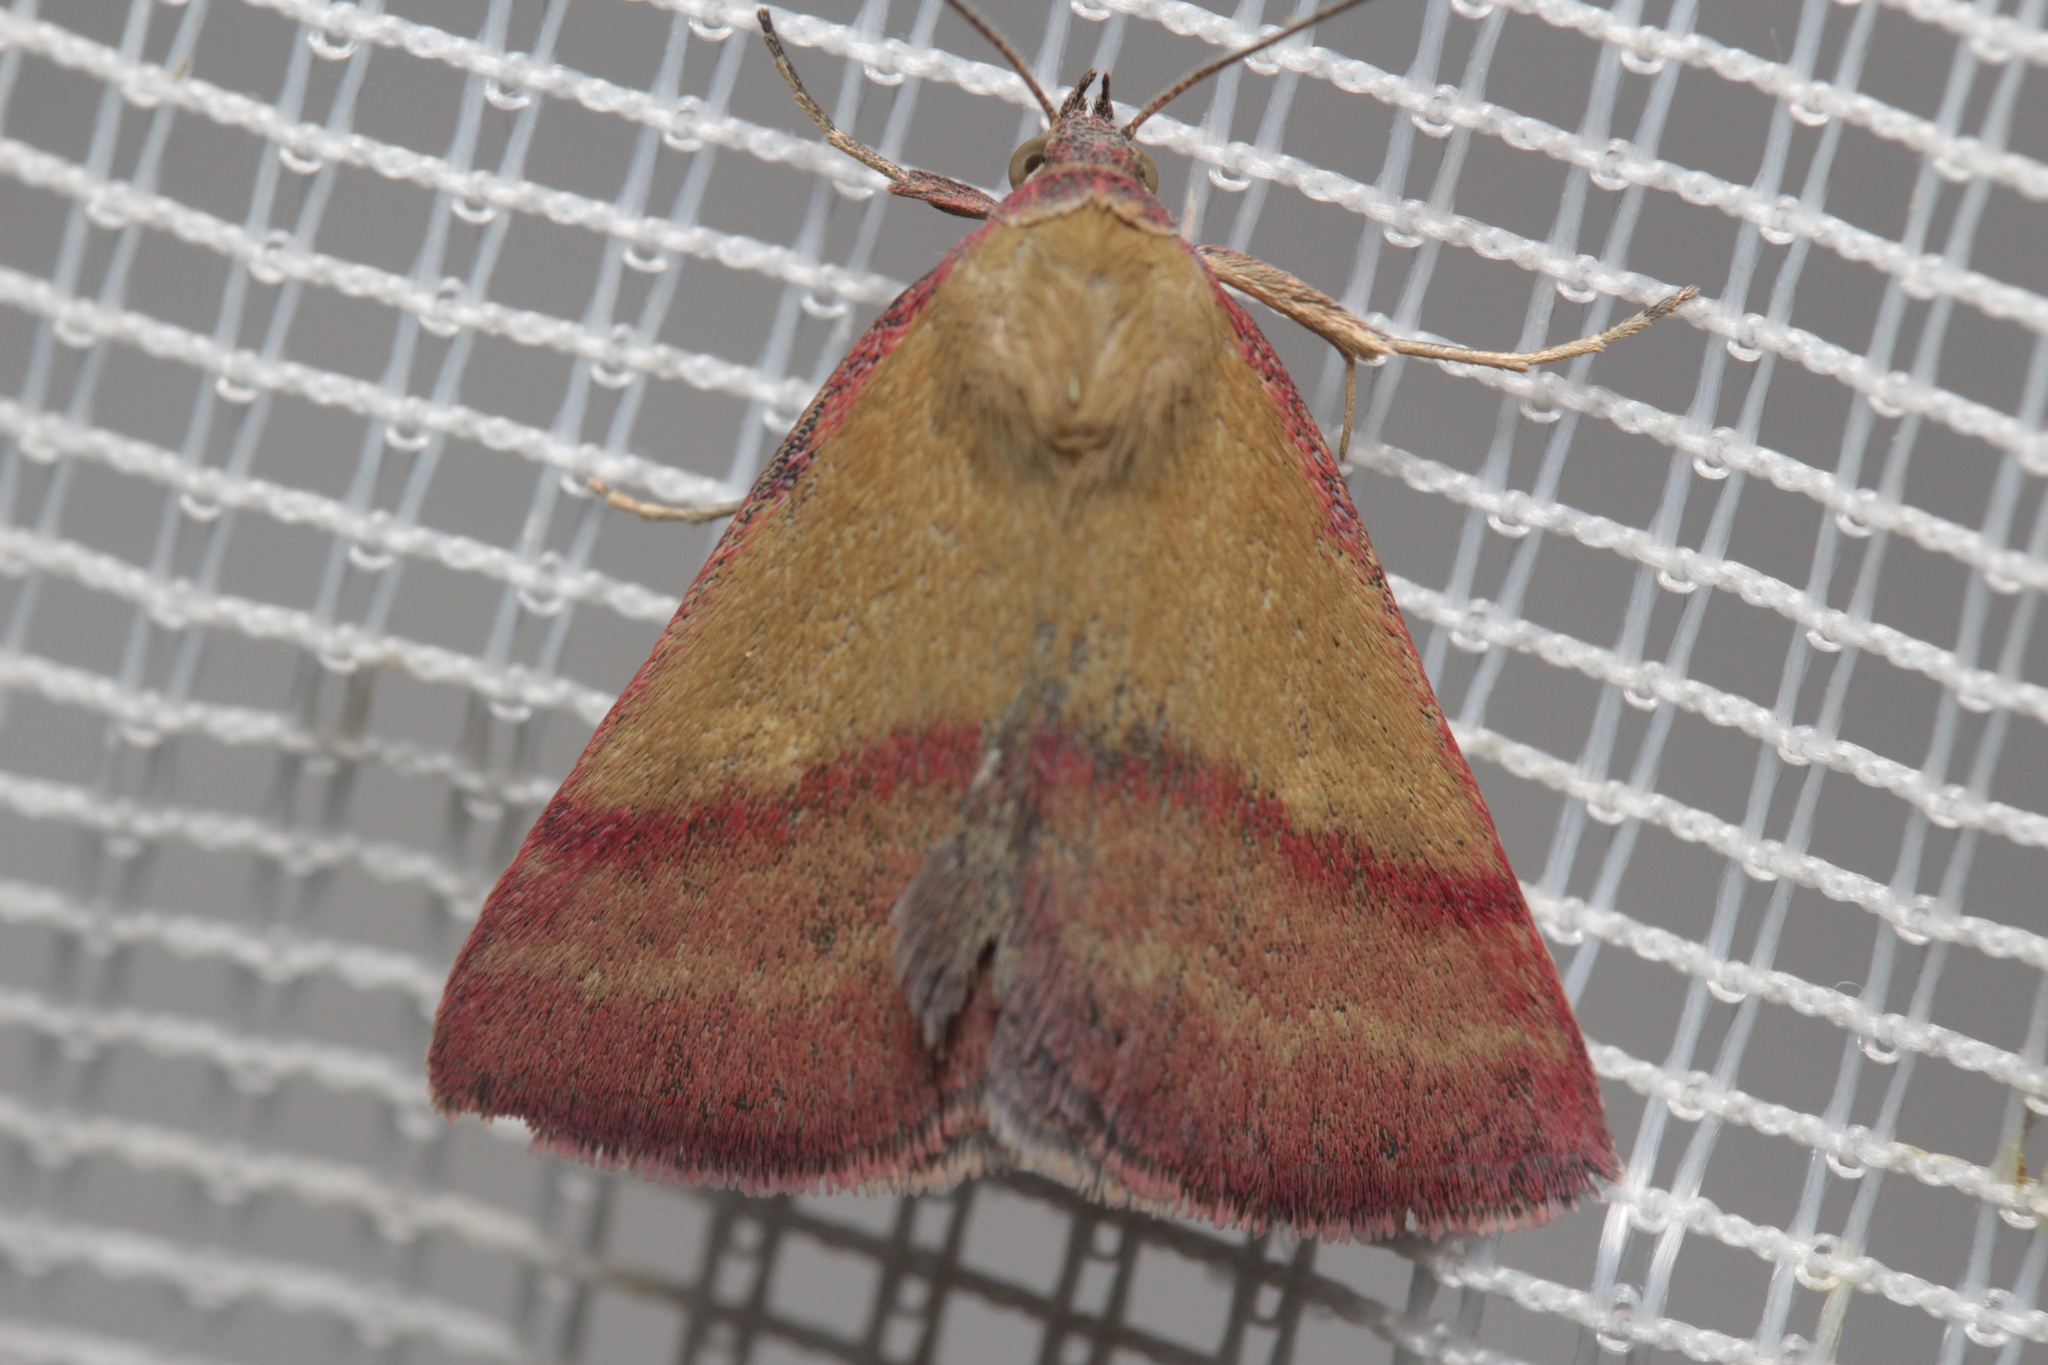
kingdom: Animalia
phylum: Arthropoda
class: Insecta
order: Lepidoptera
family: Erebidae
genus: Phytometra
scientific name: Phytometra viridaria
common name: Small purple-barred
